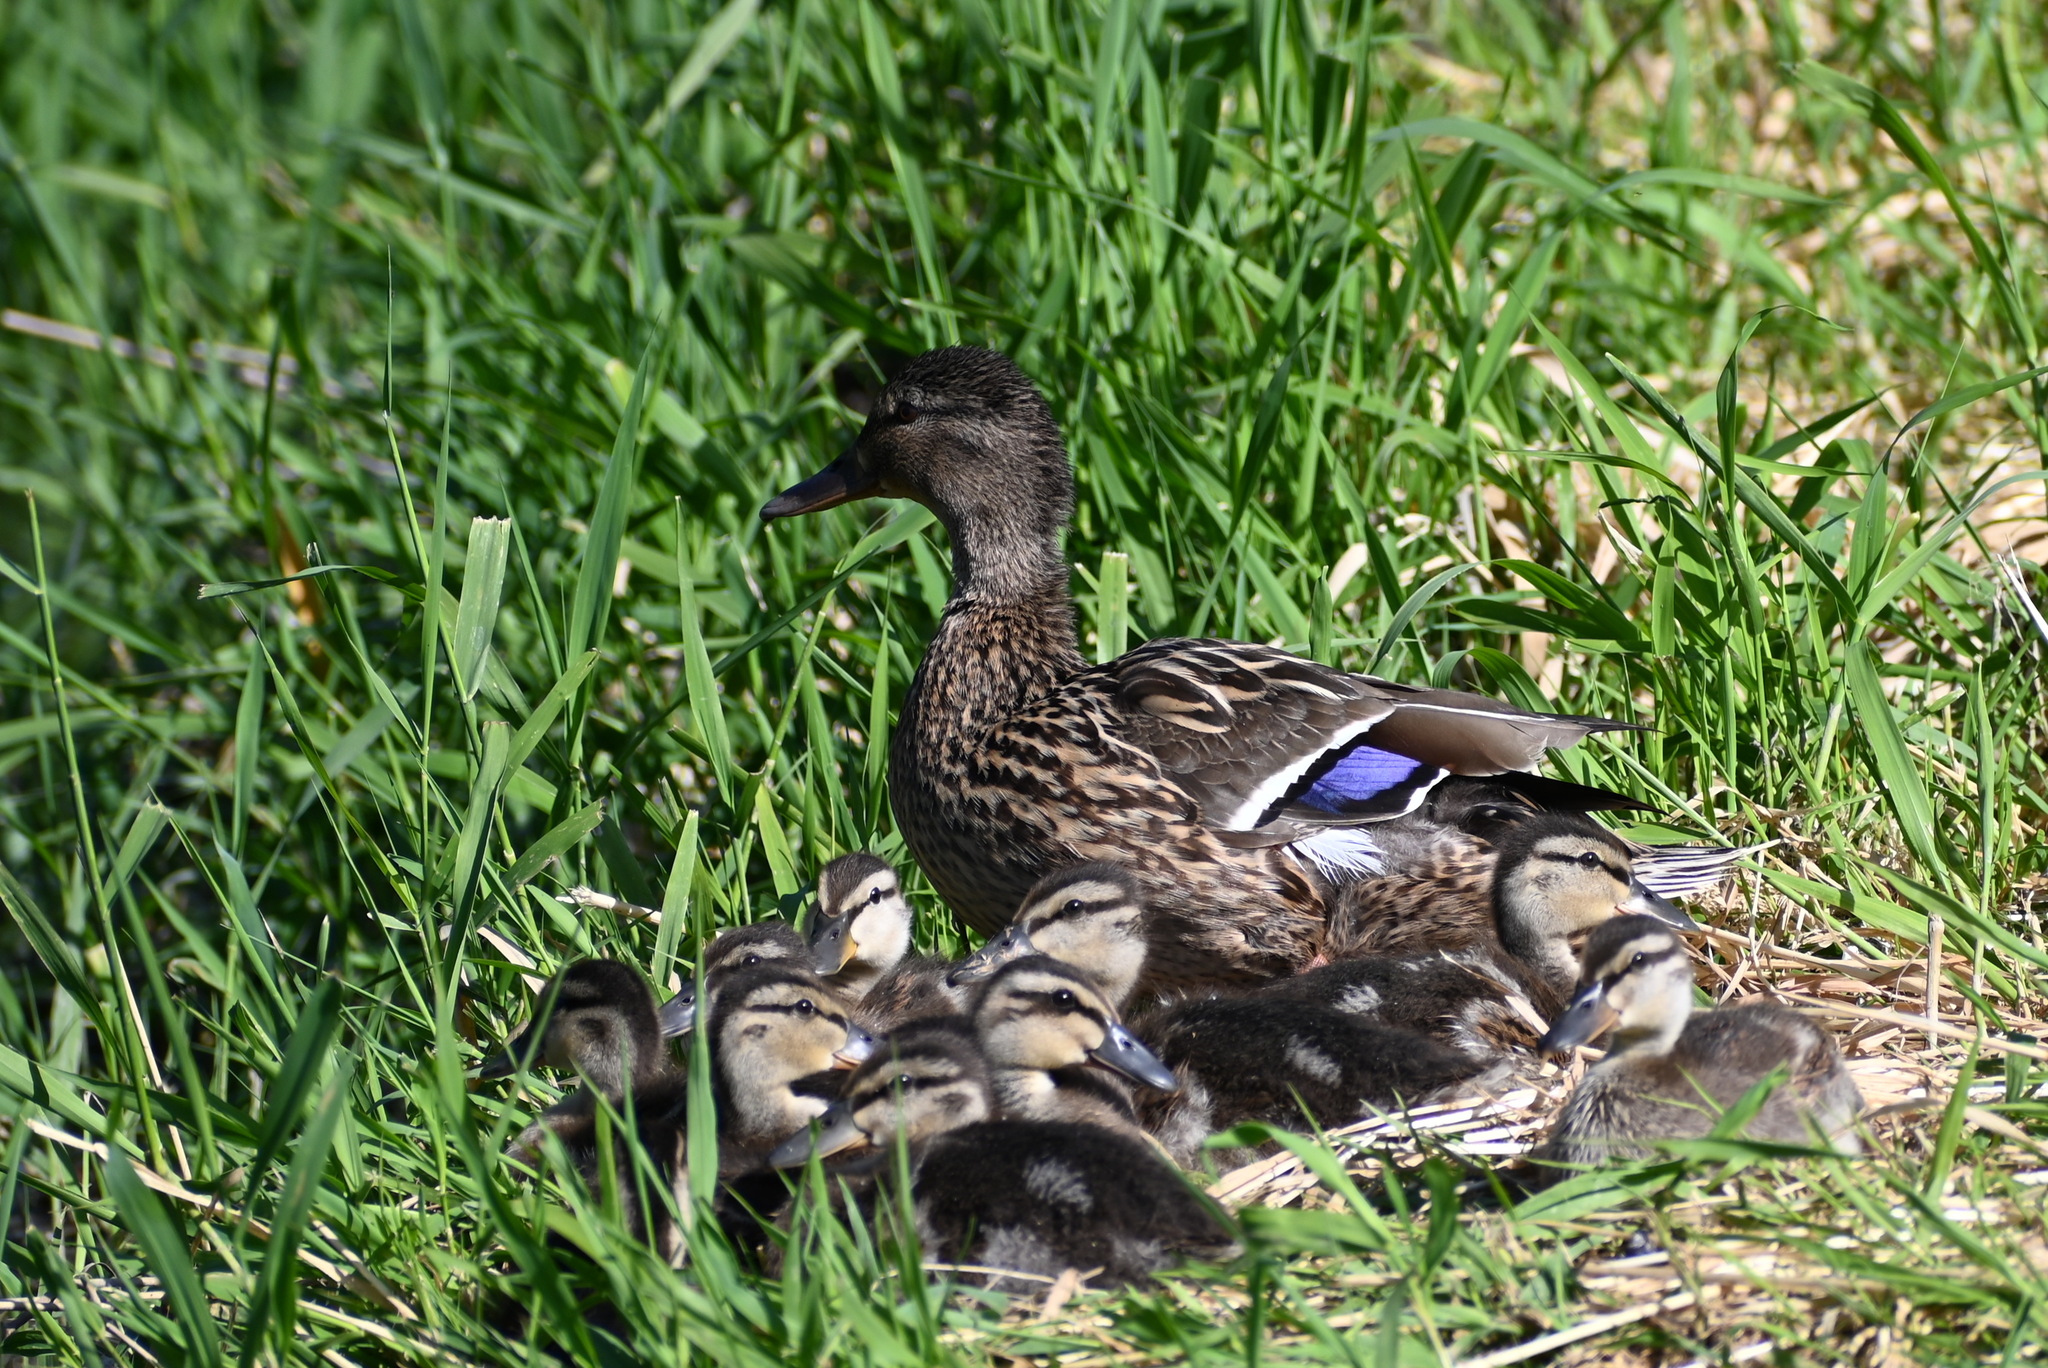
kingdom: Animalia
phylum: Chordata
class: Aves
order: Anseriformes
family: Anatidae
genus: Anas
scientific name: Anas platyrhynchos
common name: Mallard
